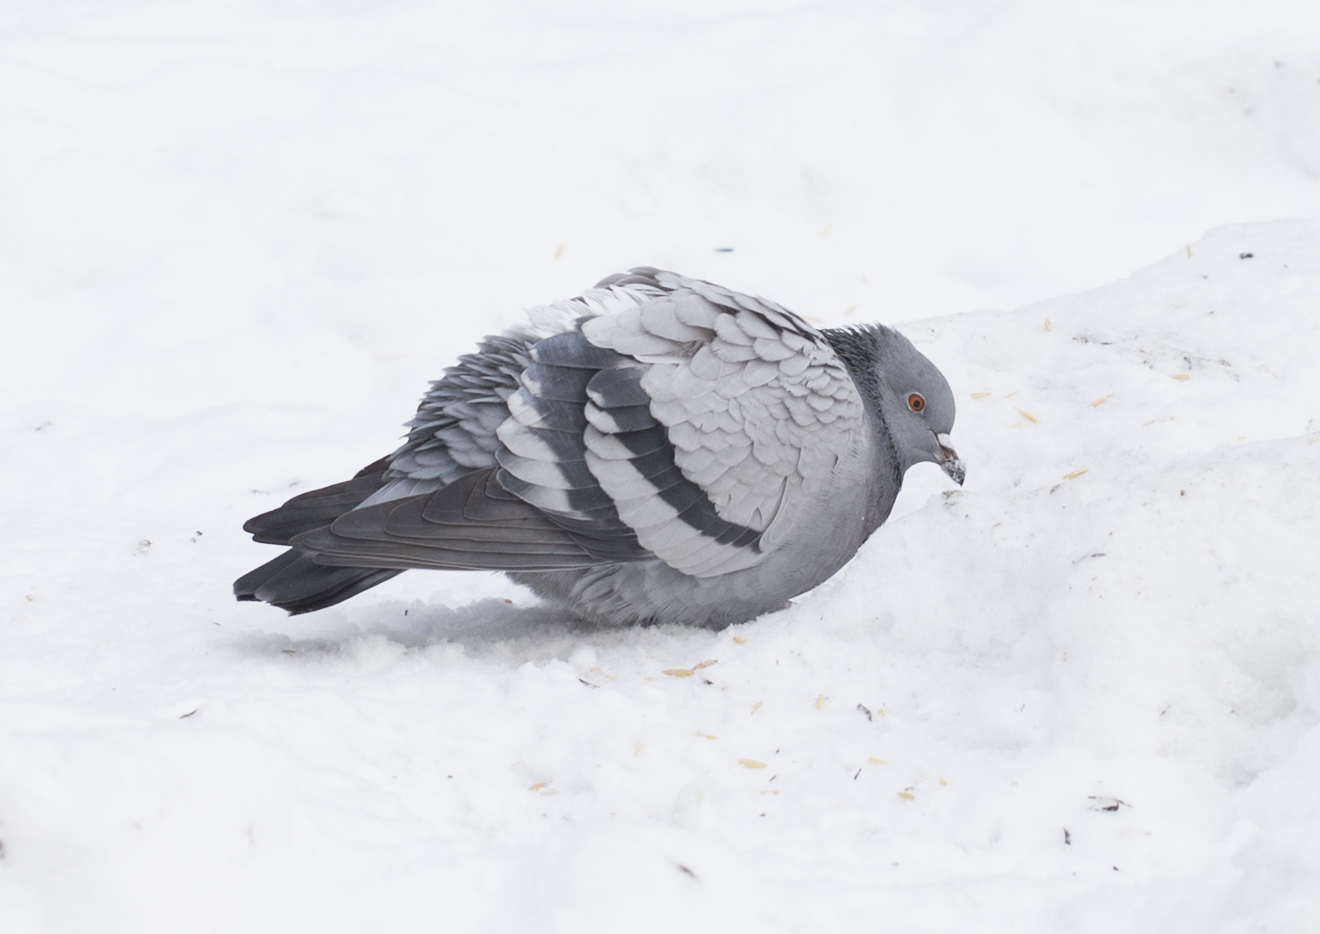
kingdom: Animalia
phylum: Chordata
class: Aves
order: Columbiformes
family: Columbidae
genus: Columba
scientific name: Columba livia
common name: Rock pigeon
